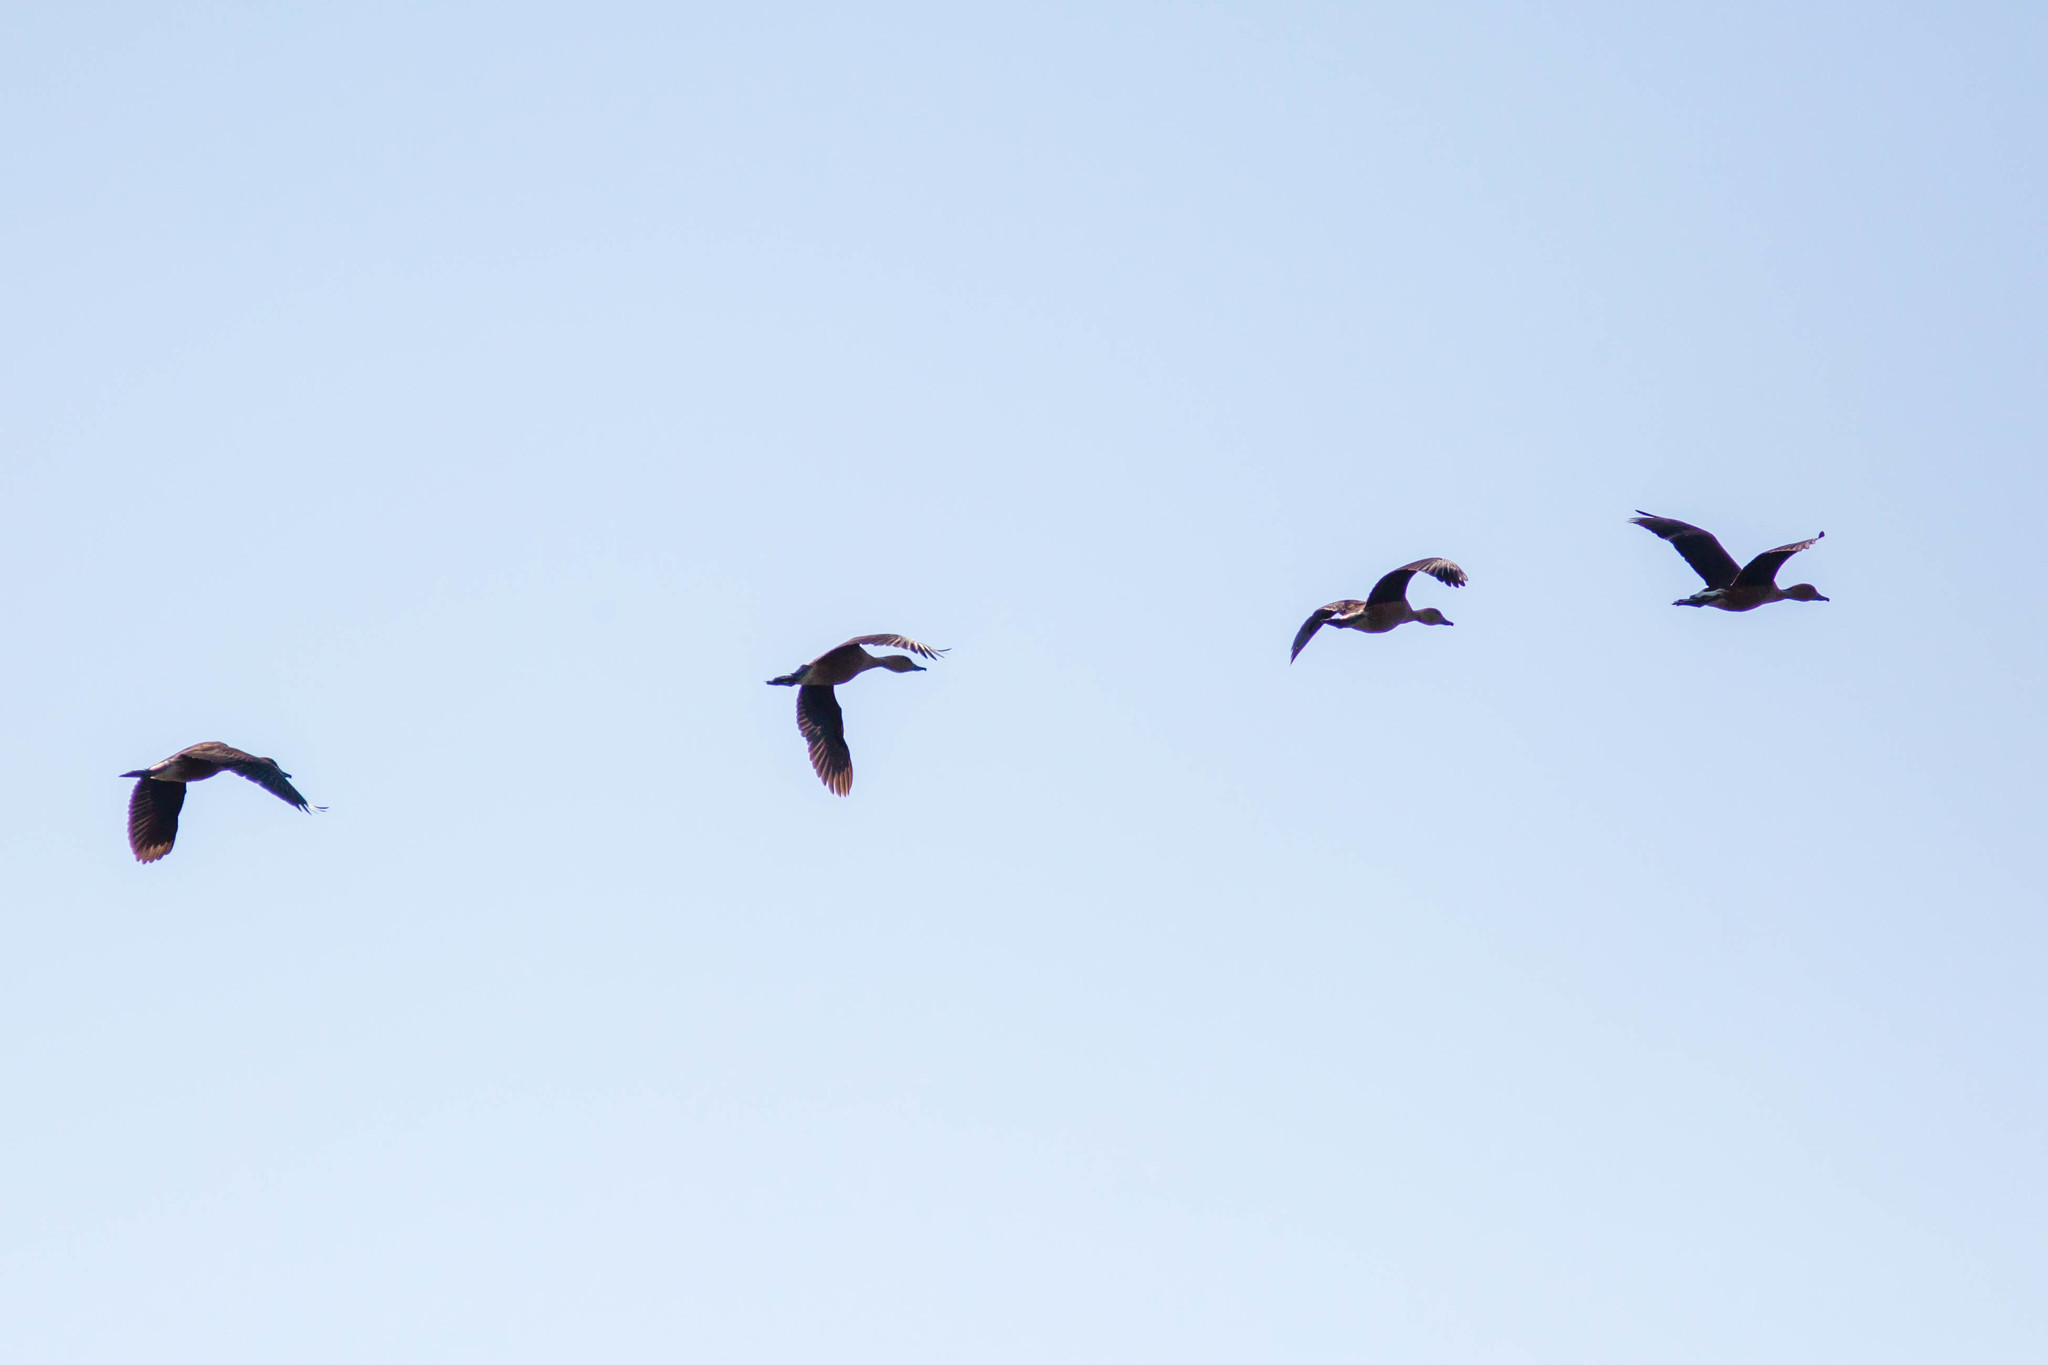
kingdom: Animalia
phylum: Chordata
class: Aves
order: Anseriformes
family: Anatidae
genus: Dendrocygna
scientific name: Dendrocygna bicolor
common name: Fulvous whistling duck
